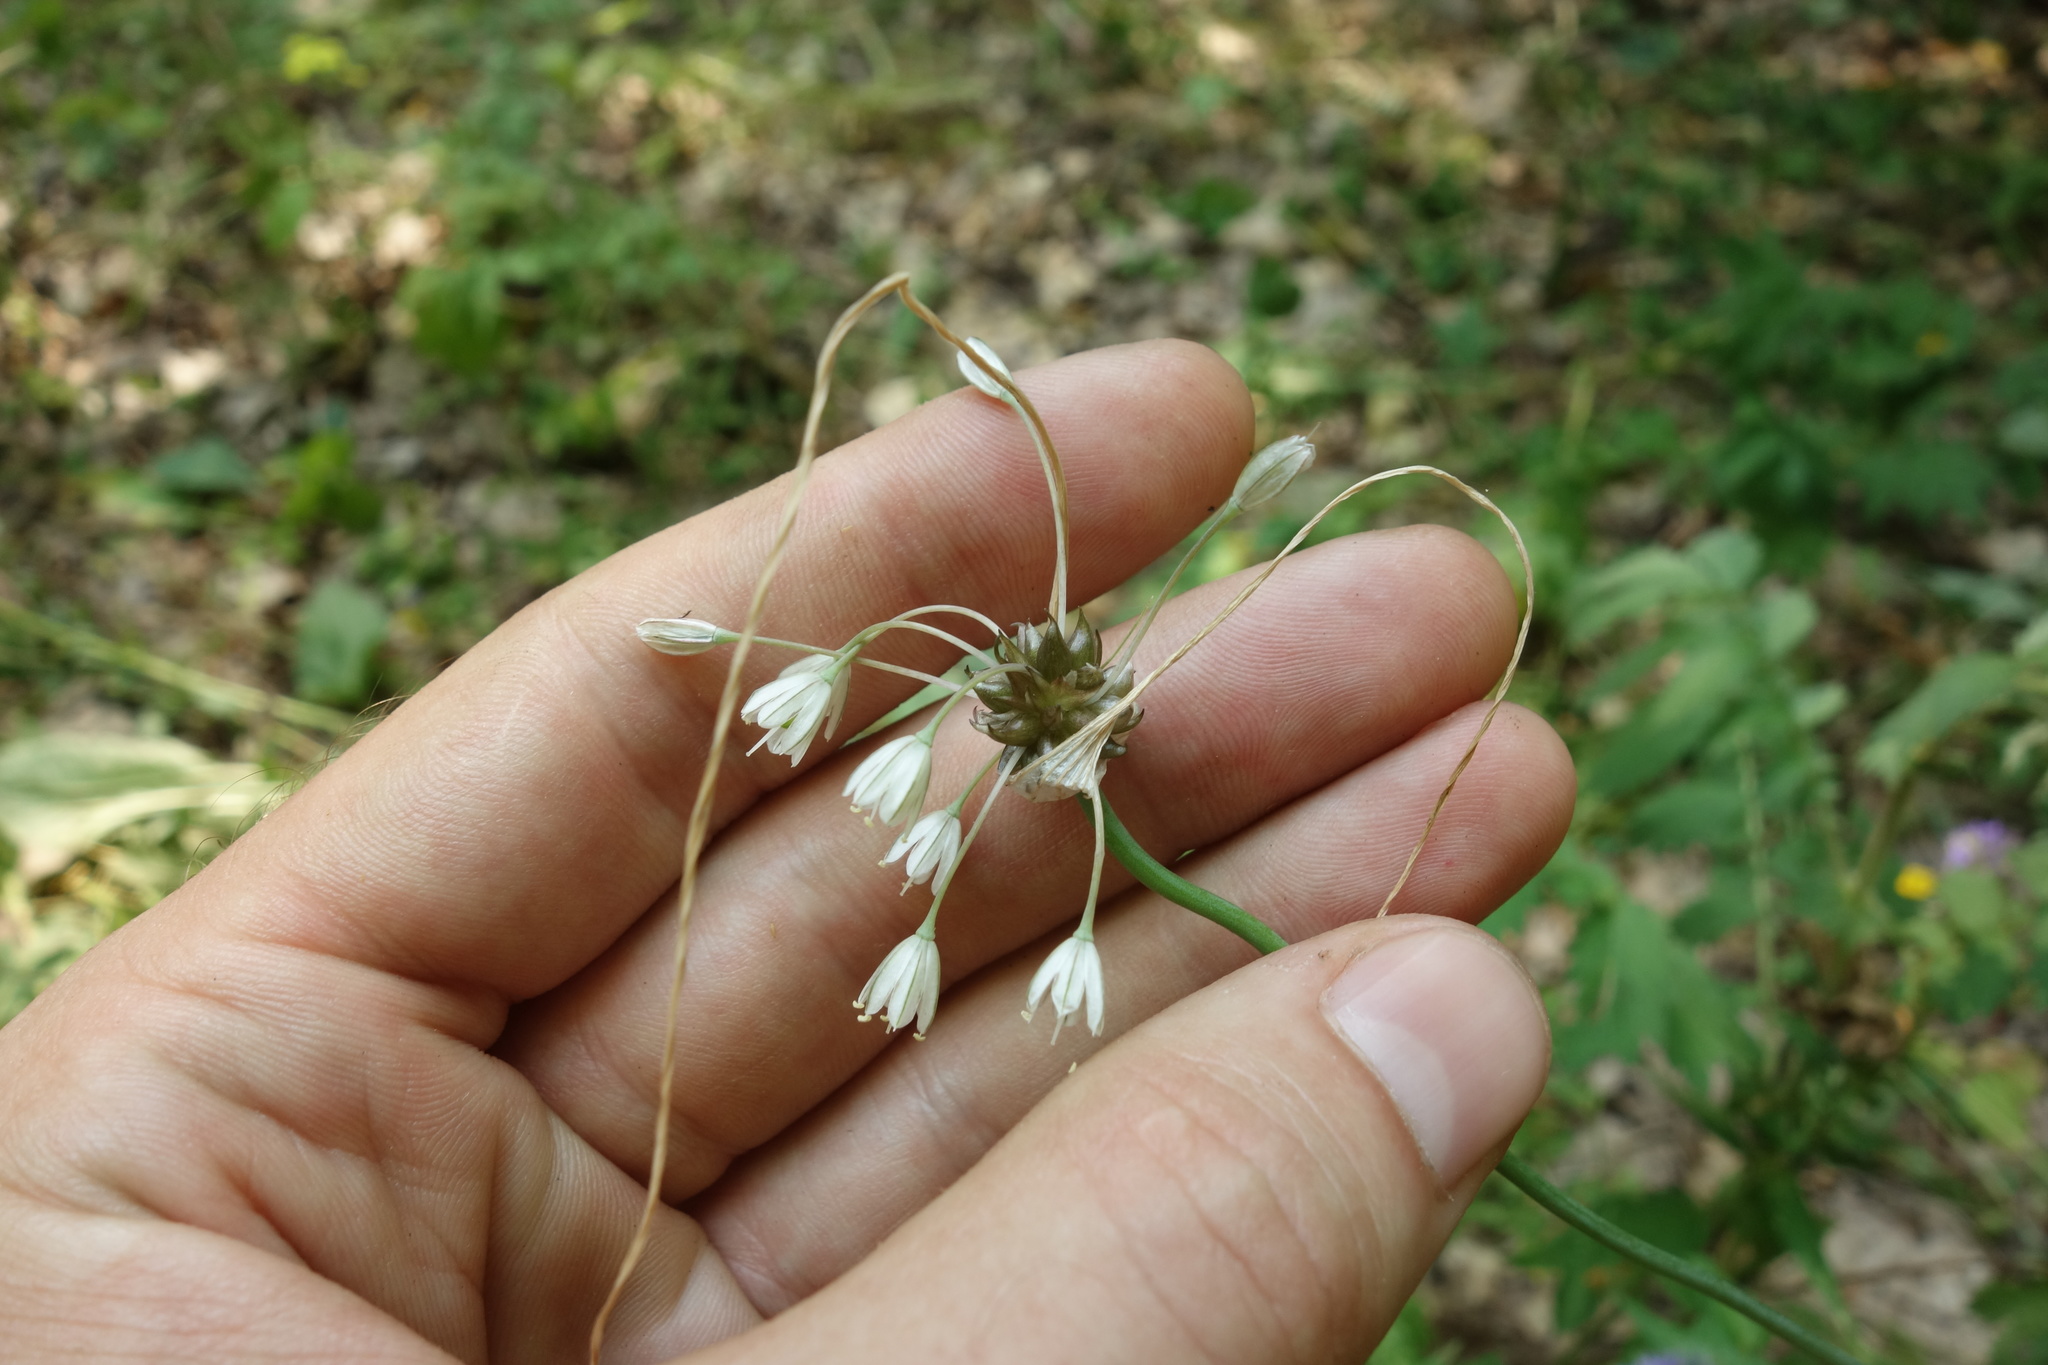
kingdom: Plantae
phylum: Tracheophyta
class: Liliopsida
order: Asparagales
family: Amaryllidaceae
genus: Allium
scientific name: Allium oleraceum
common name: Field garlic
